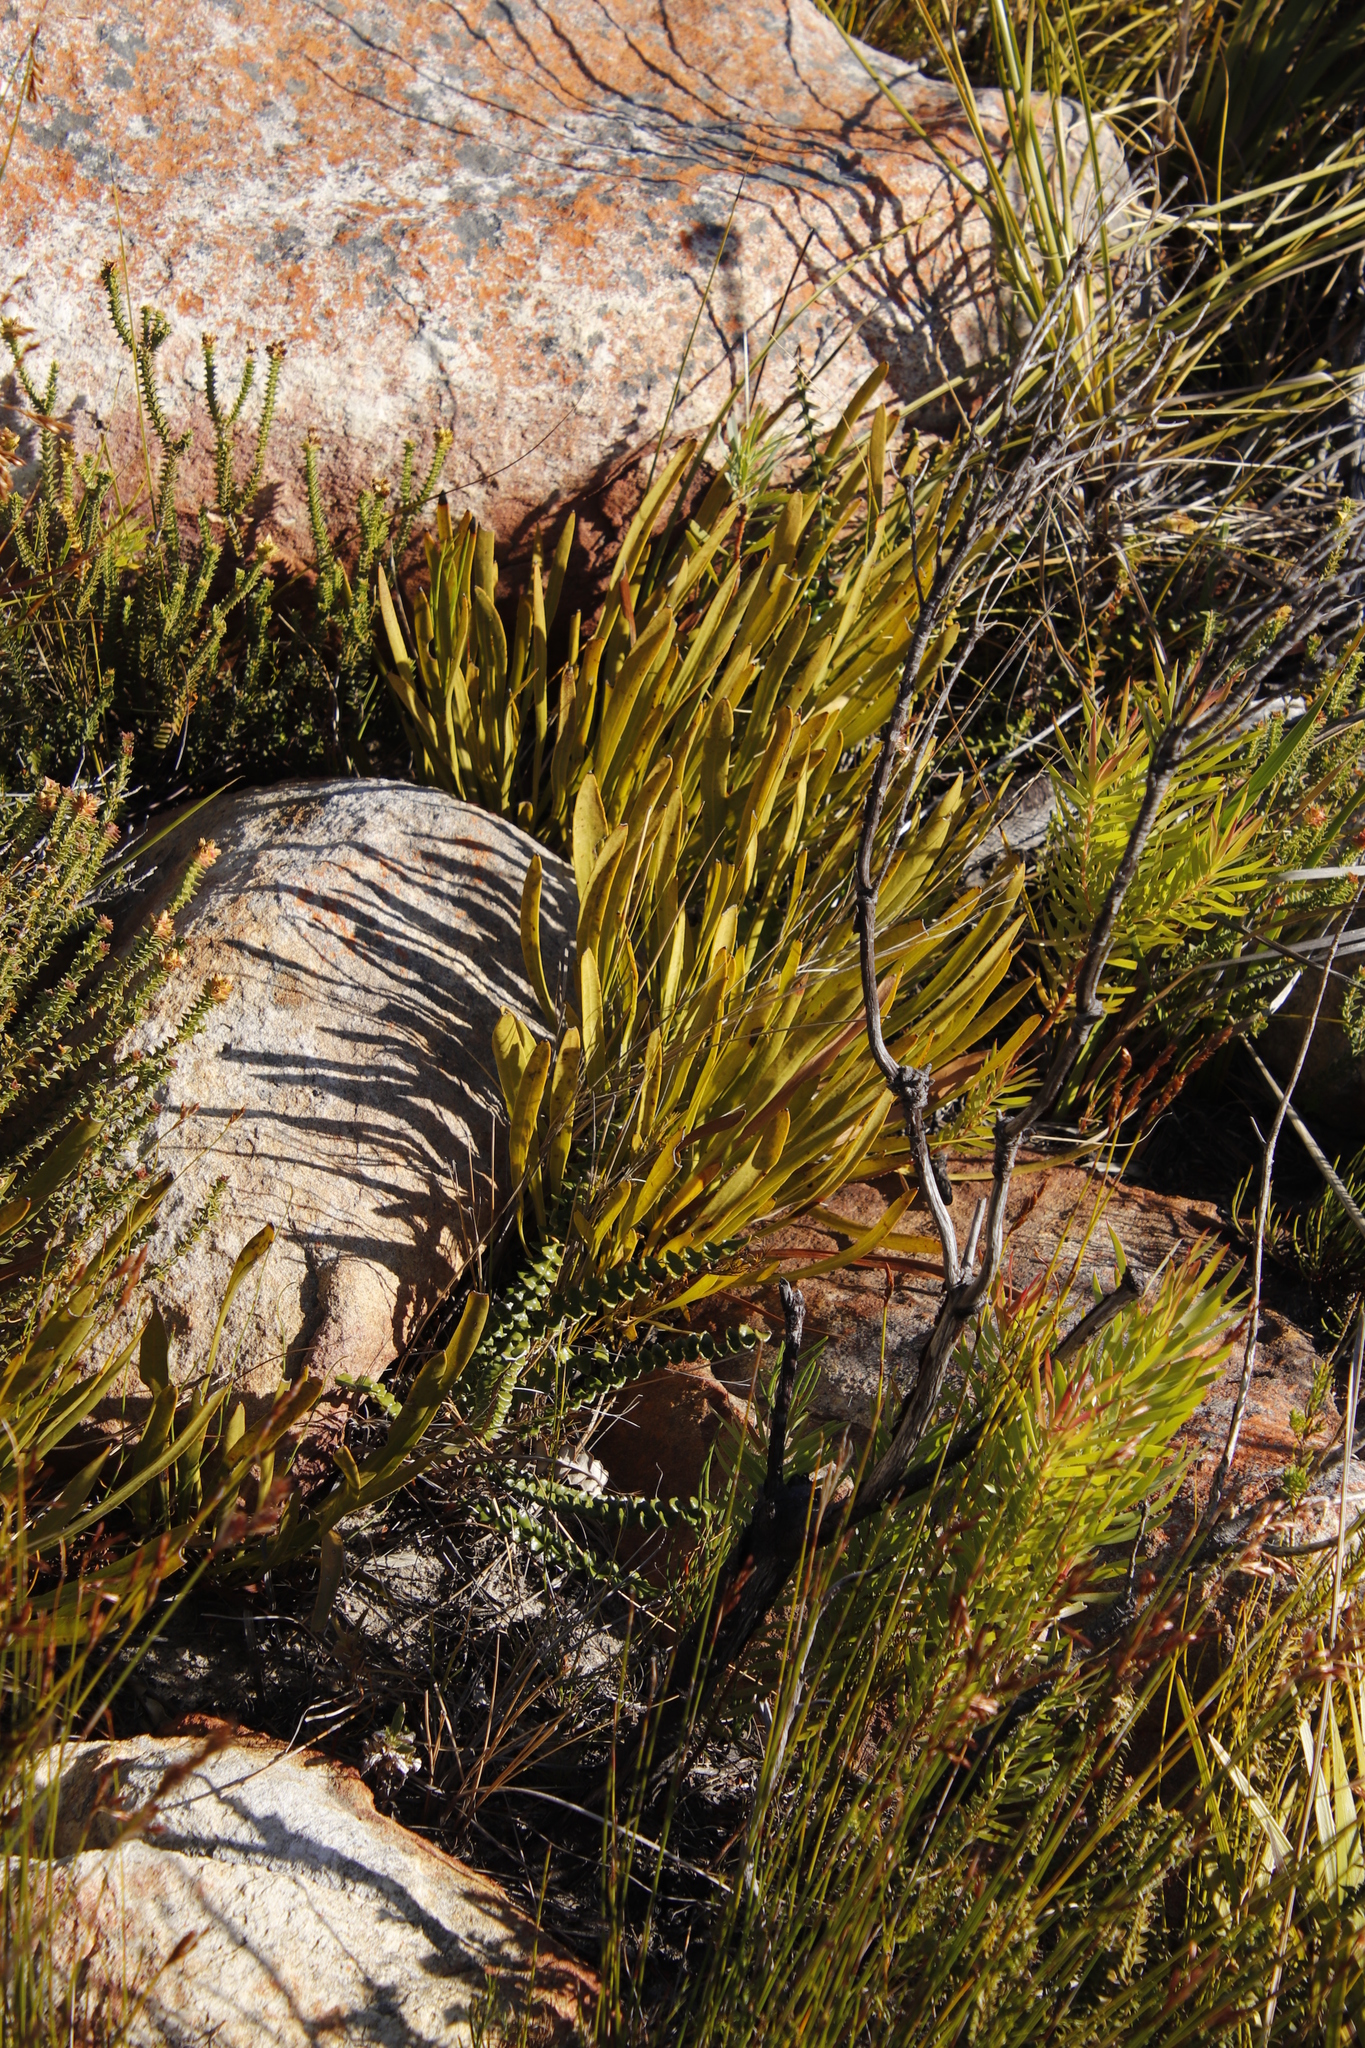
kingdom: Plantae
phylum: Tracheophyta
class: Magnoliopsida
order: Proteales
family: Proteaceae
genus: Protea
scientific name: Protea scabra
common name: Sandpaper-leaf sugarbush
